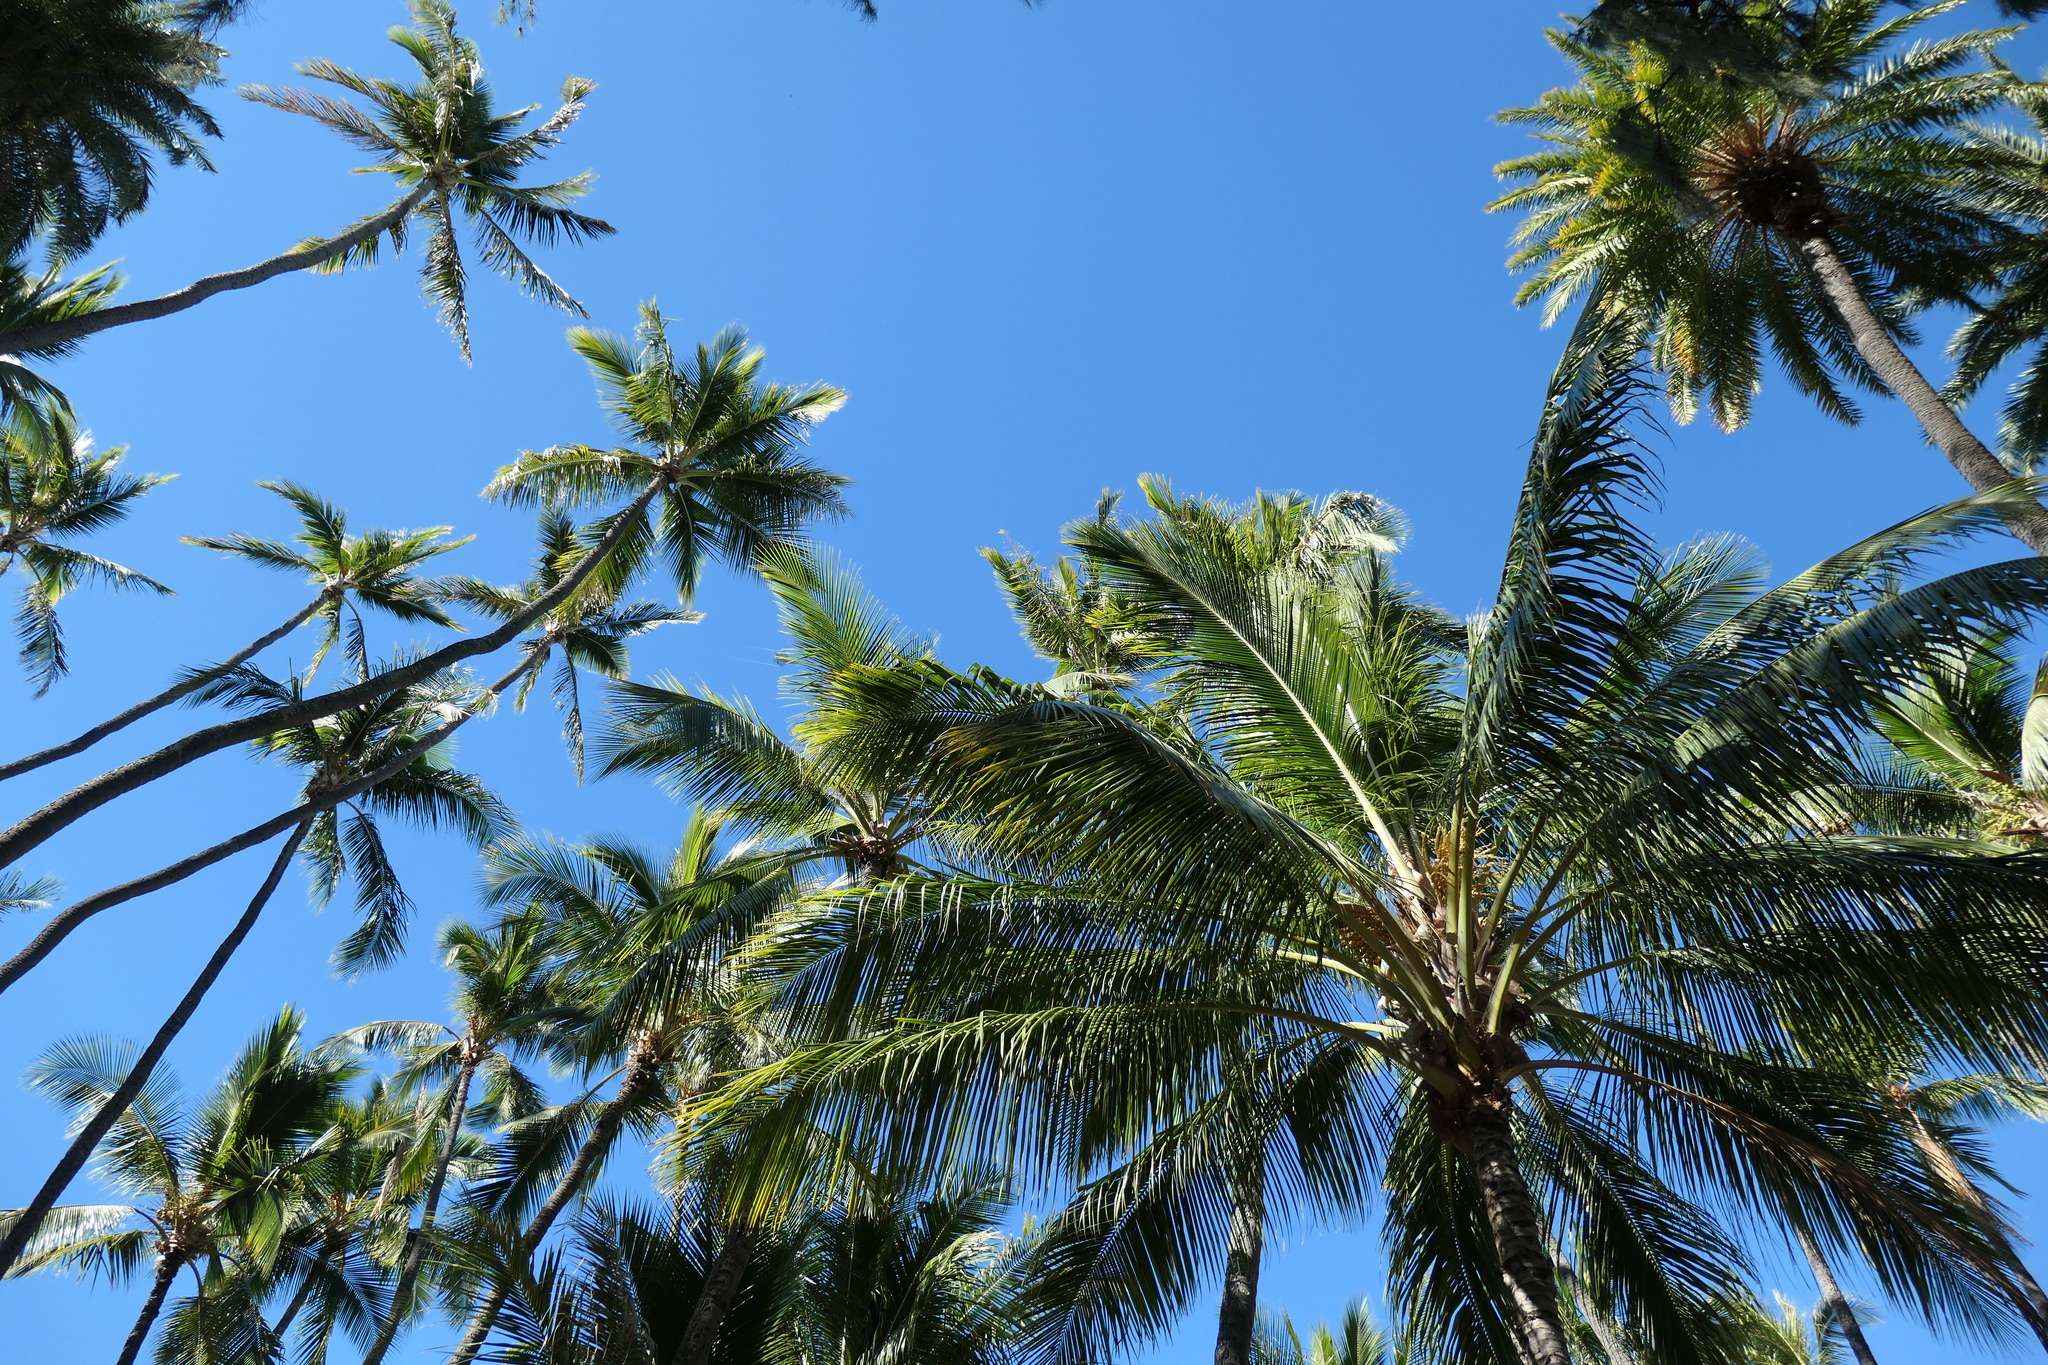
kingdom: Plantae
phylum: Tracheophyta
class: Liliopsida
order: Arecales
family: Arecaceae
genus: Cocos
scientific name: Cocos nucifera
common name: Coconut palm
